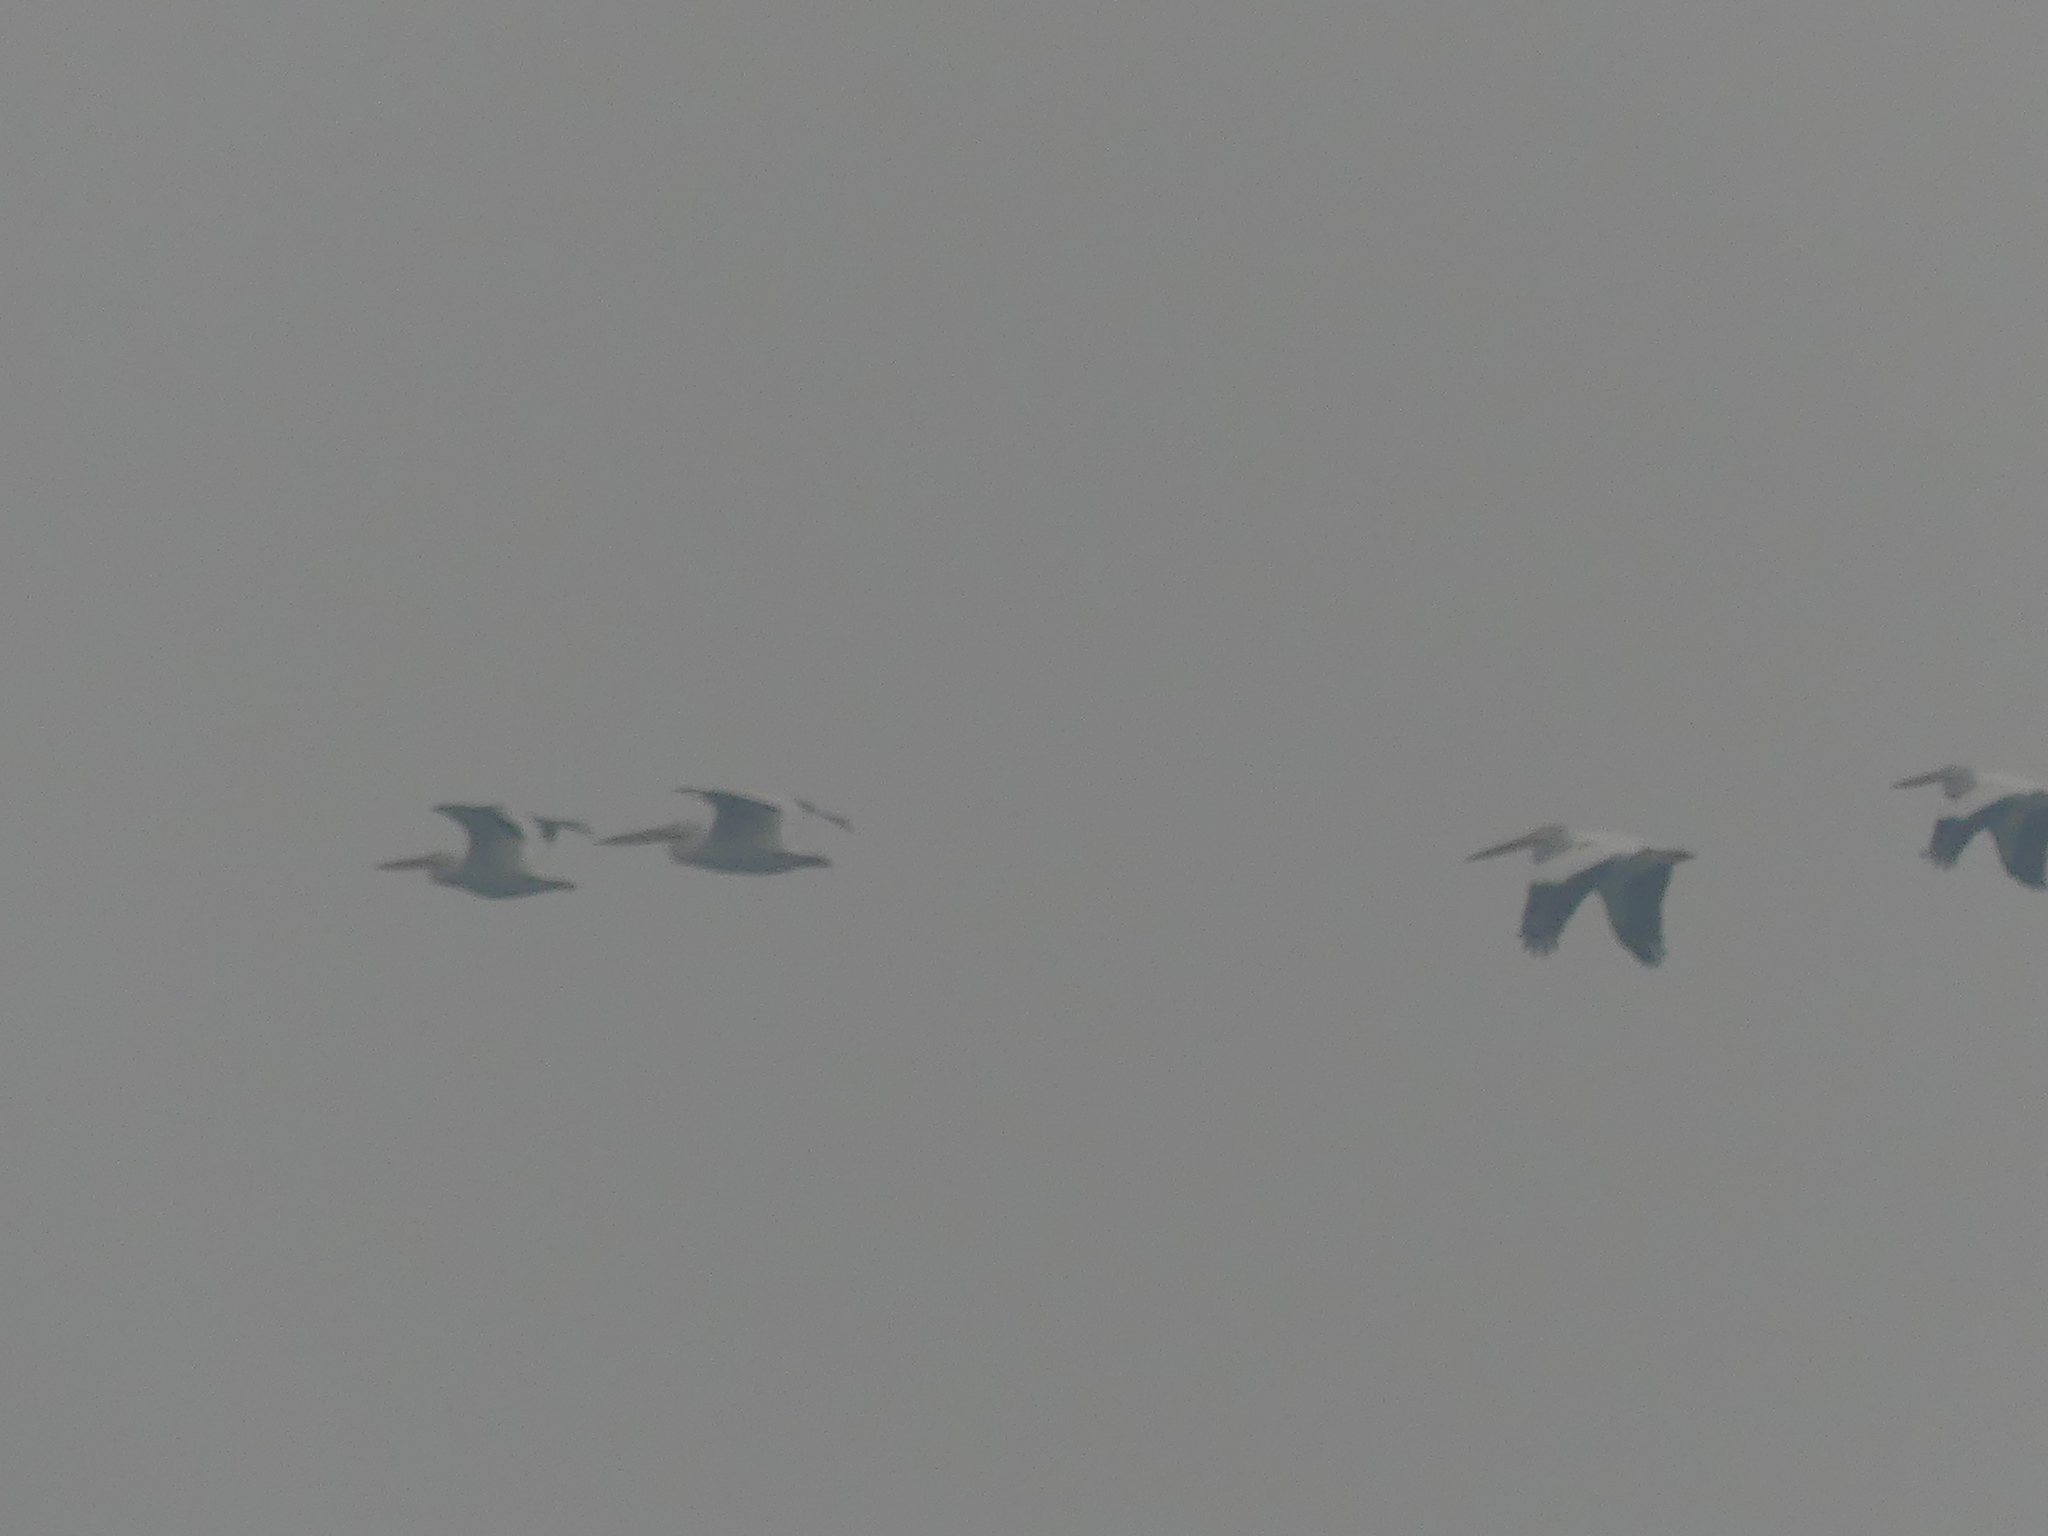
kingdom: Animalia
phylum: Chordata
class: Aves
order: Pelecaniformes
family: Pelecanidae
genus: Pelecanus
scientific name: Pelecanus erythrorhynchos
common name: American white pelican
